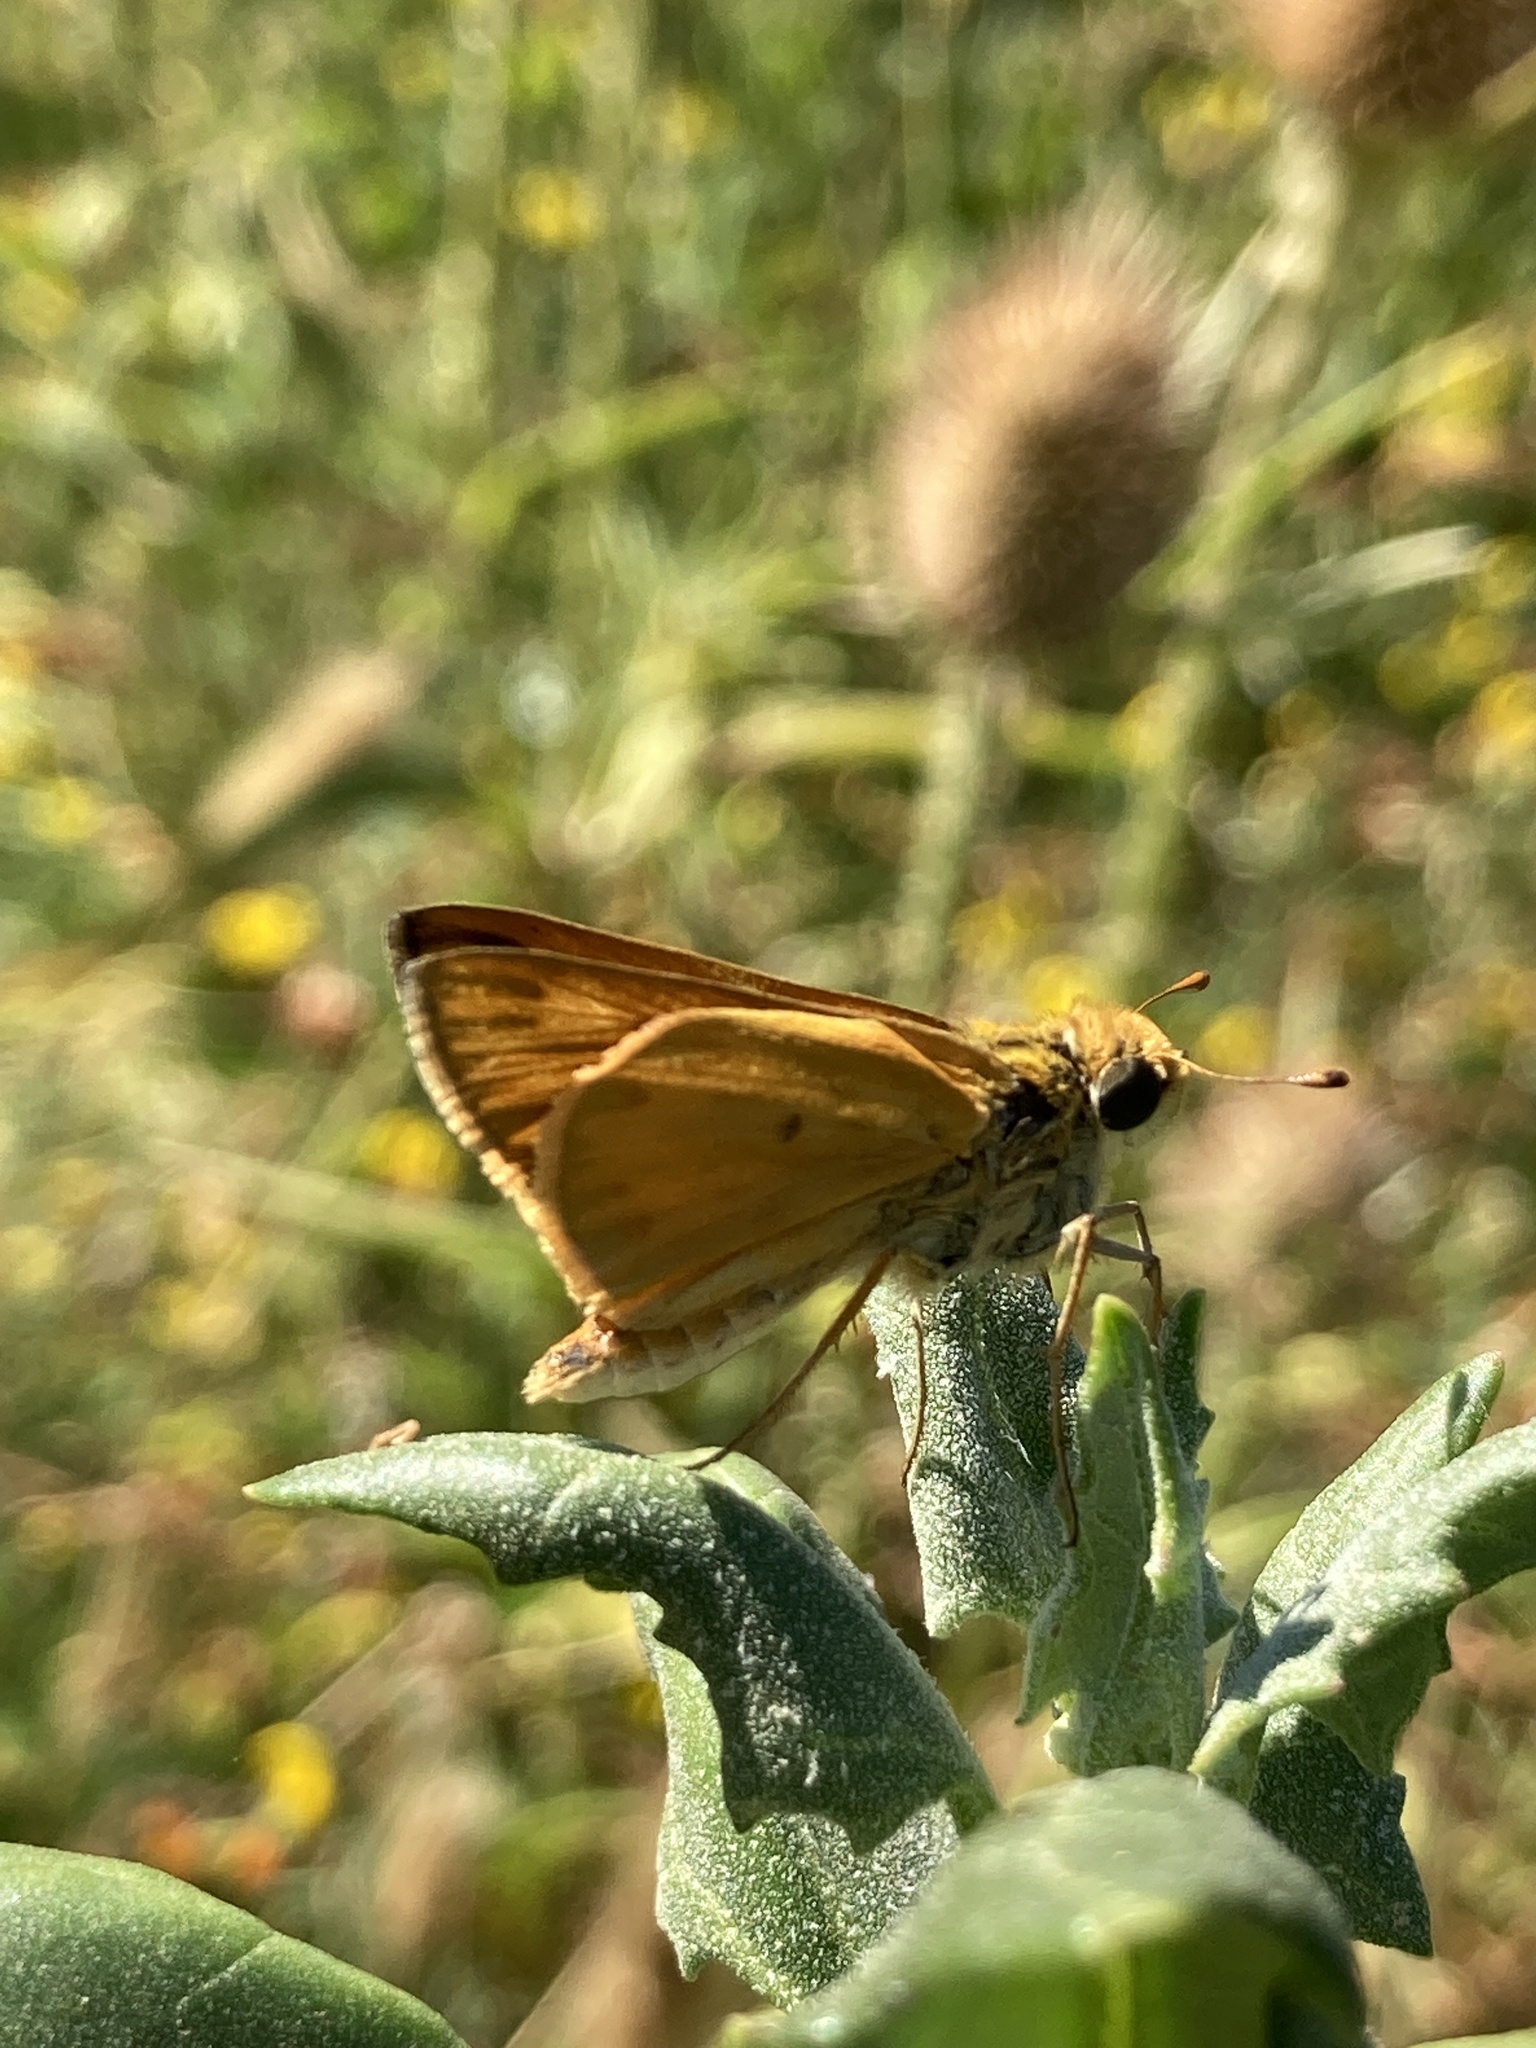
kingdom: Animalia
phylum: Arthropoda
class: Insecta
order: Lepidoptera
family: Hesperiidae
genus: Hylephila
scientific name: Hylephila phyleus
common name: Fiery skipper
